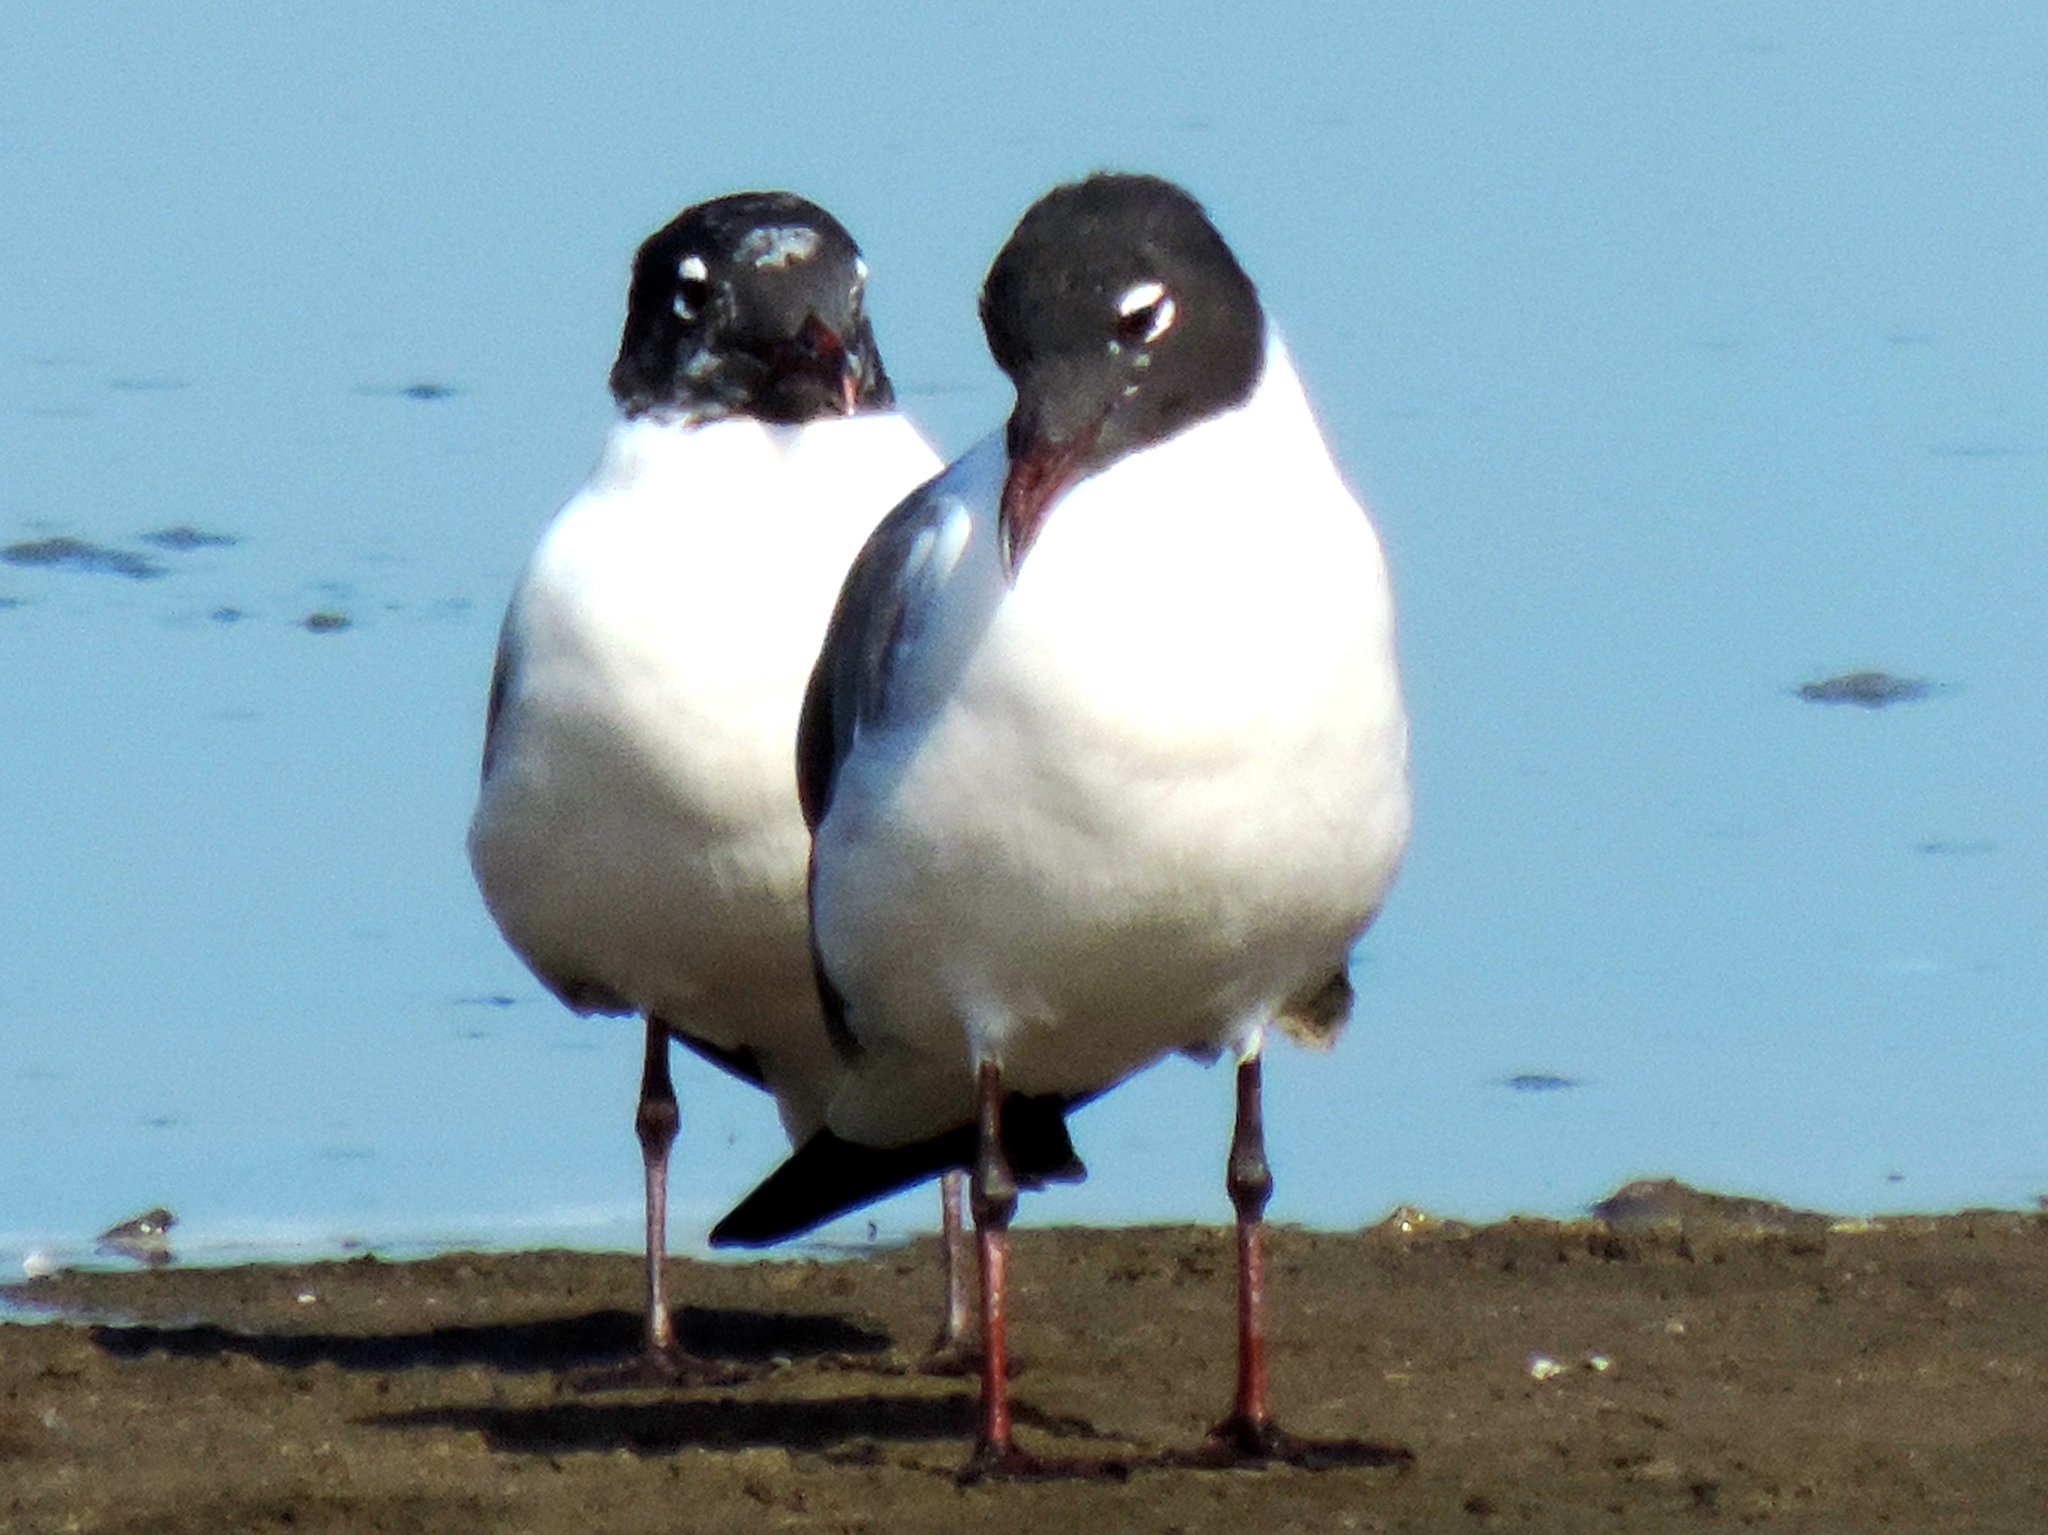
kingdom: Animalia
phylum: Chordata
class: Aves
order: Charadriiformes
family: Laridae
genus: Leucophaeus
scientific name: Leucophaeus atricilla
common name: Laughing gull
